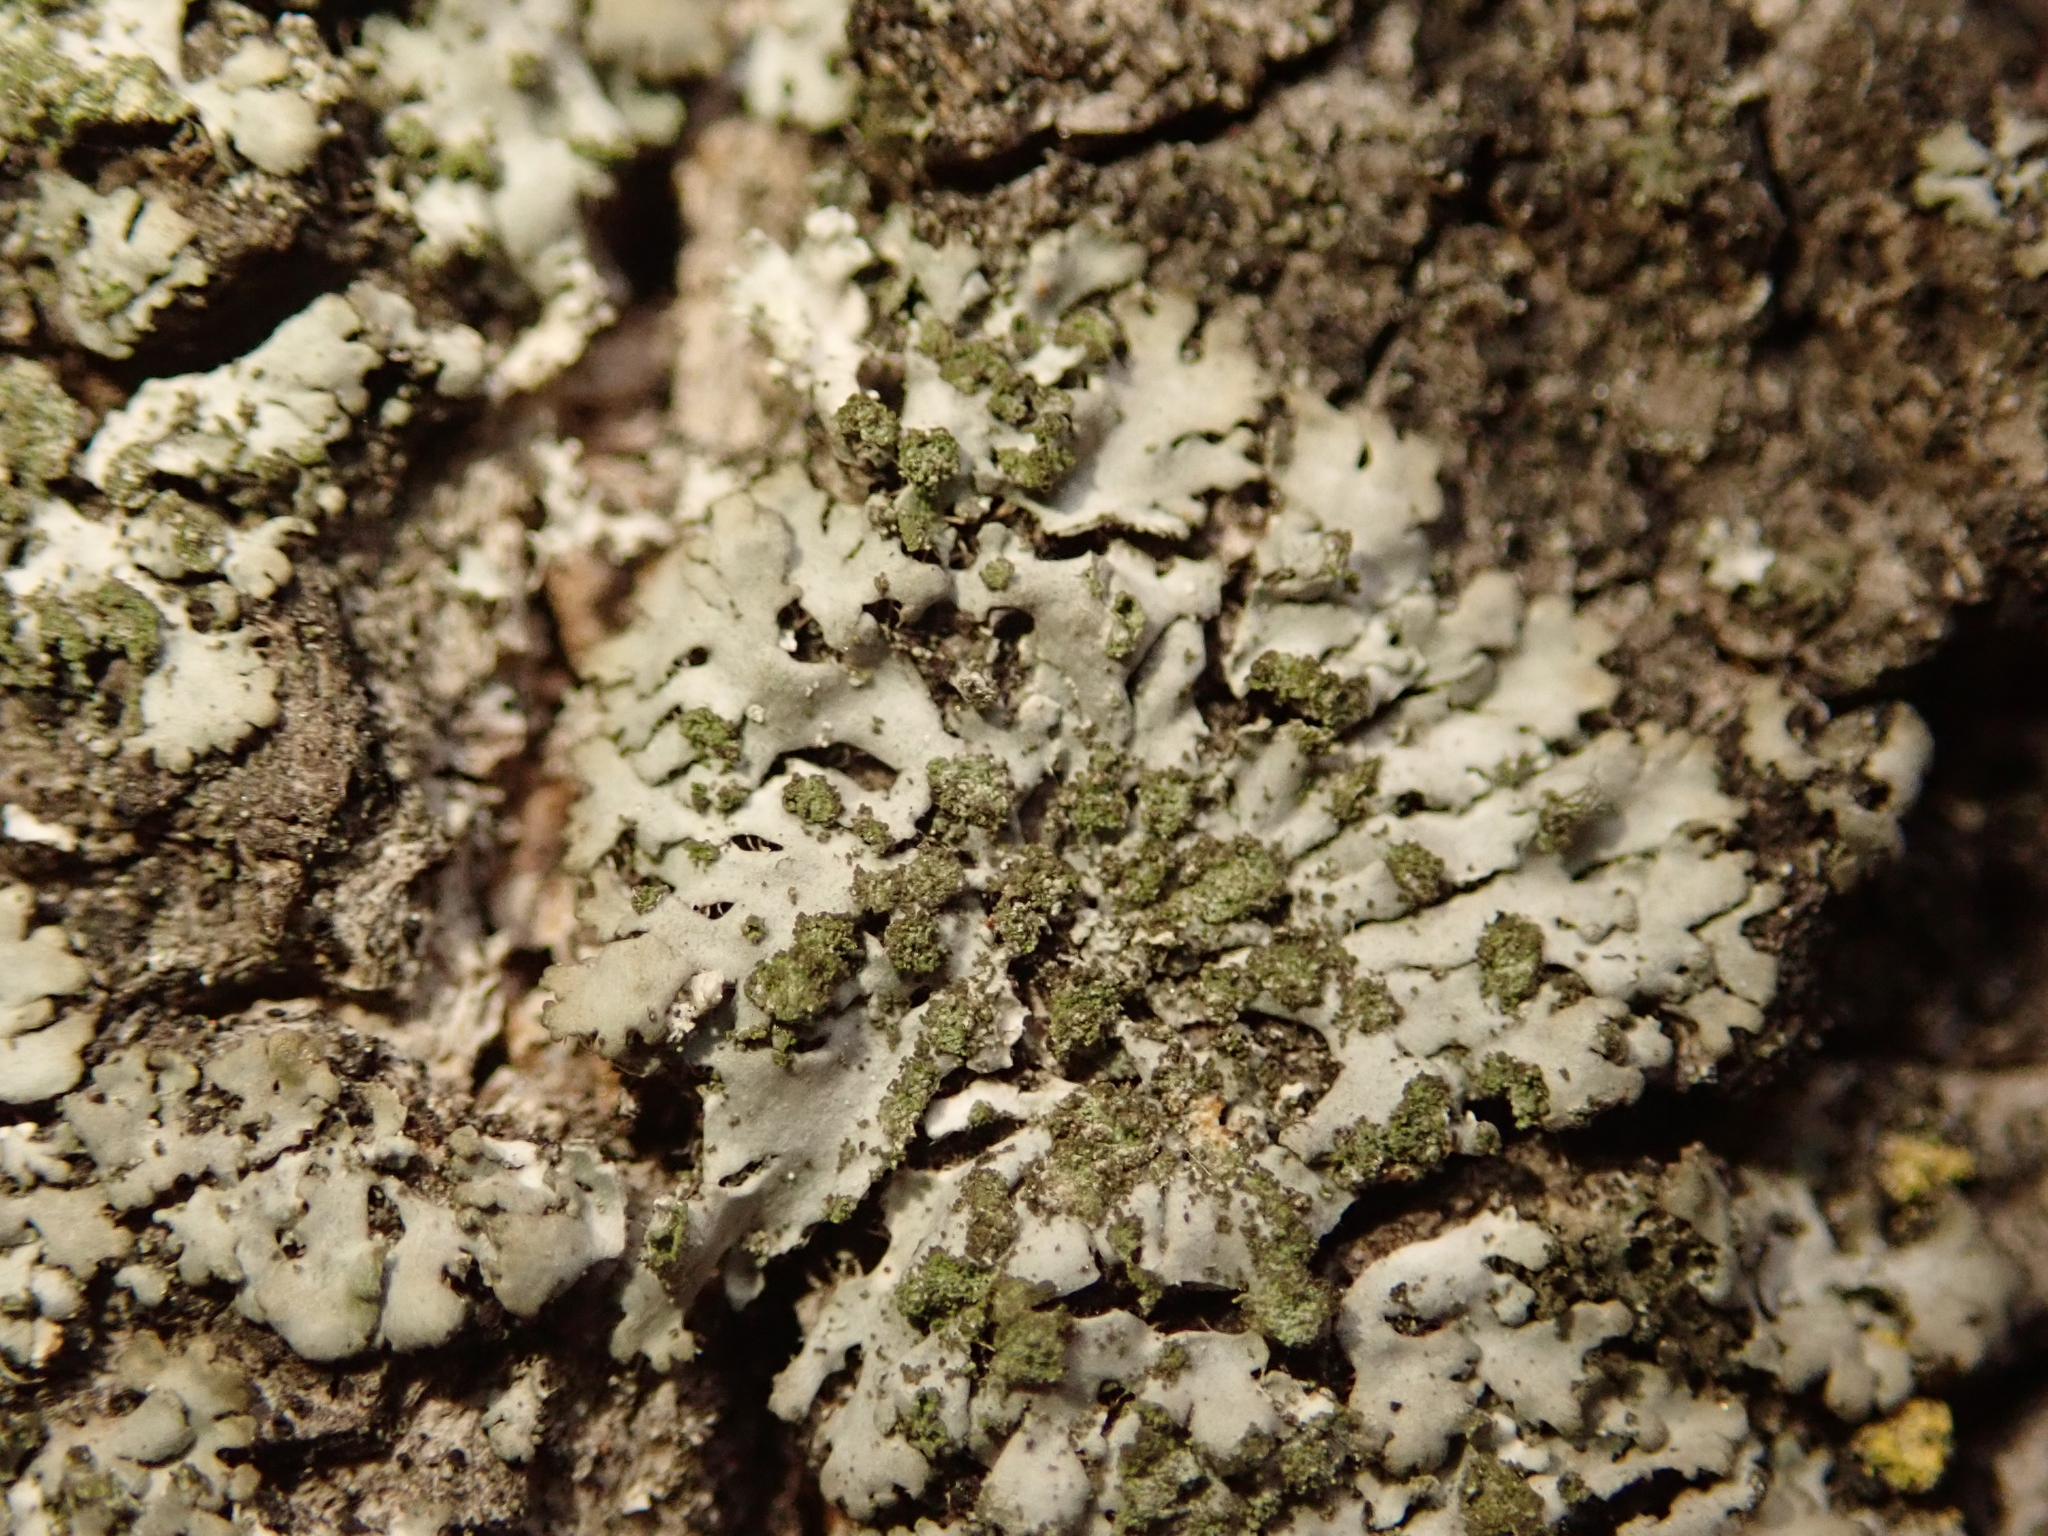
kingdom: Fungi
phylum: Ascomycota
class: Lecanoromycetes
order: Caliciales
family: Physciaceae
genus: Phaeophyscia
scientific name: Phaeophyscia orbicularis
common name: Mealy shadow lichen
